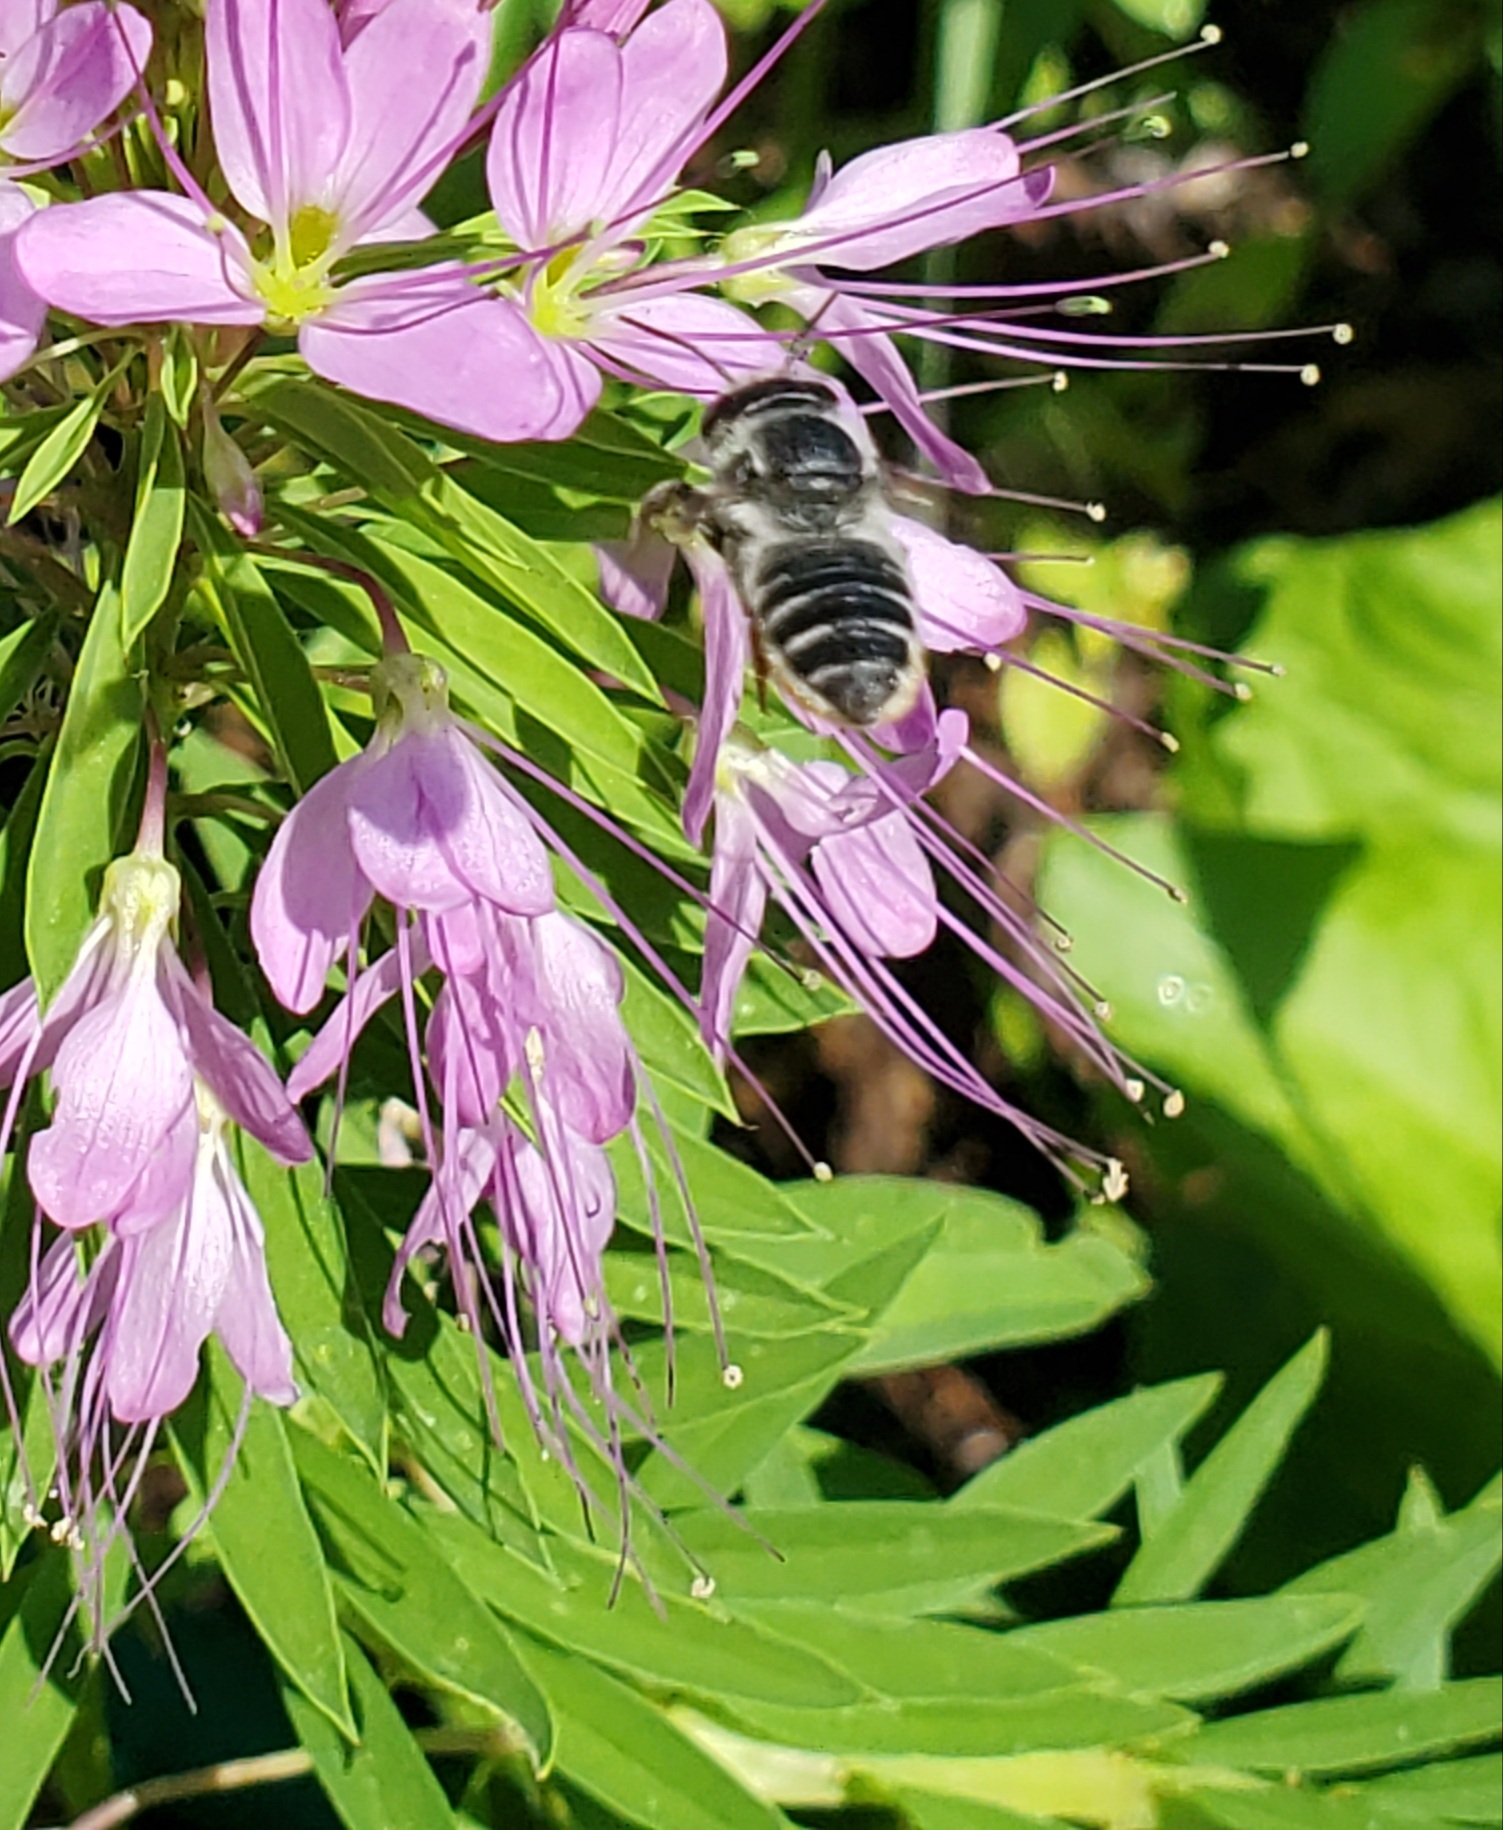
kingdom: Animalia
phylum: Arthropoda
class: Insecta
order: Hymenoptera
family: Megachilidae
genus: Megachile
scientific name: Megachile
